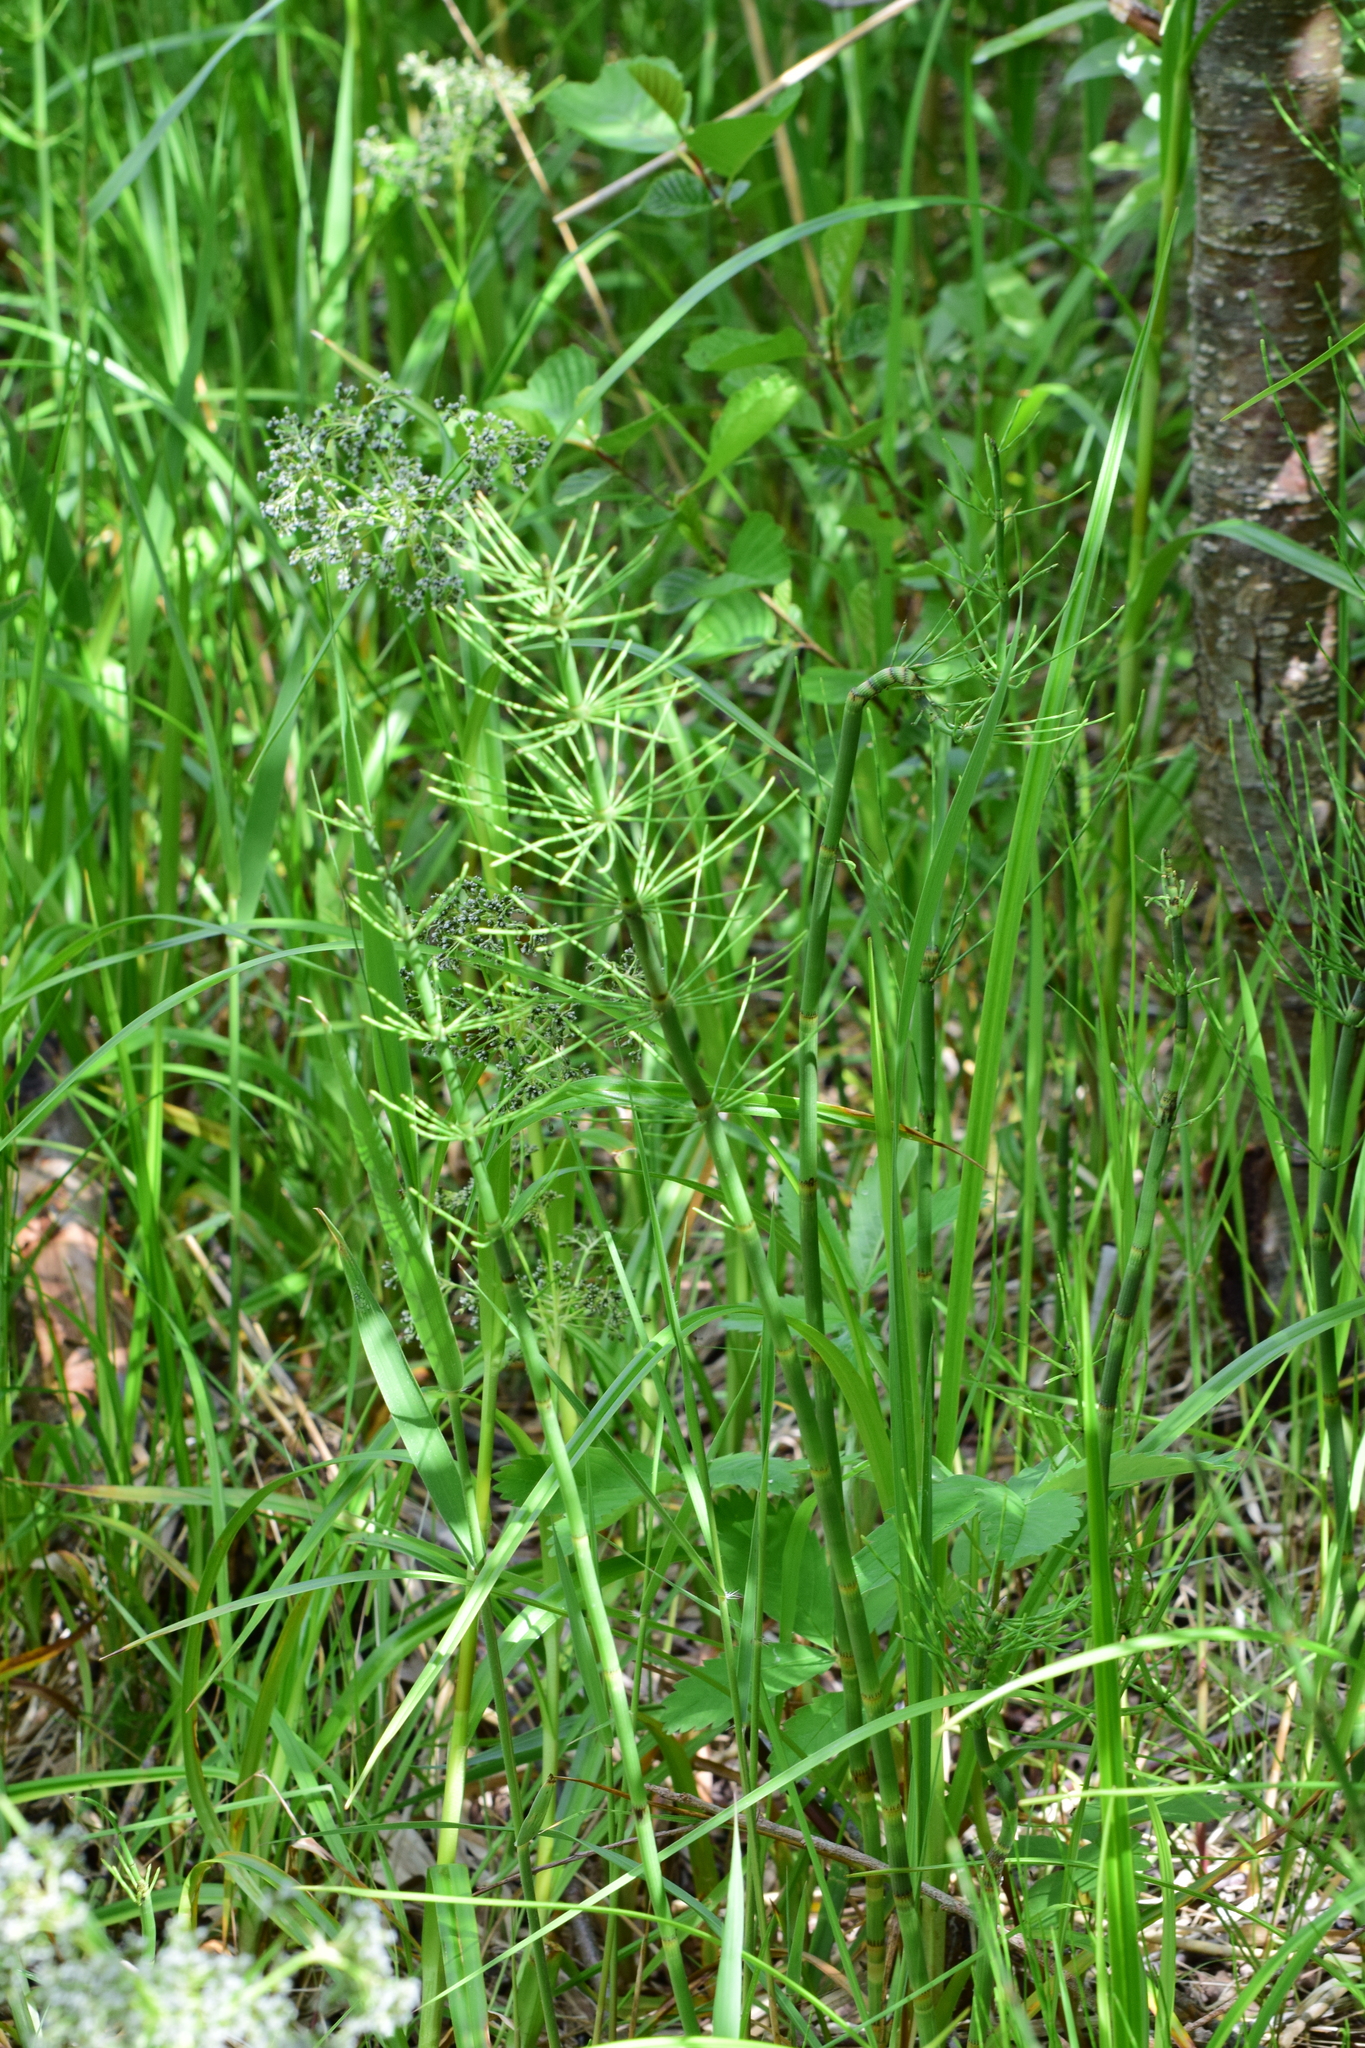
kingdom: Plantae
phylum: Tracheophyta
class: Polypodiopsida
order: Equisetales
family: Equisetaceae
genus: Equisetum
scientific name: Equisetum fluviatile
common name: Water horsetail
